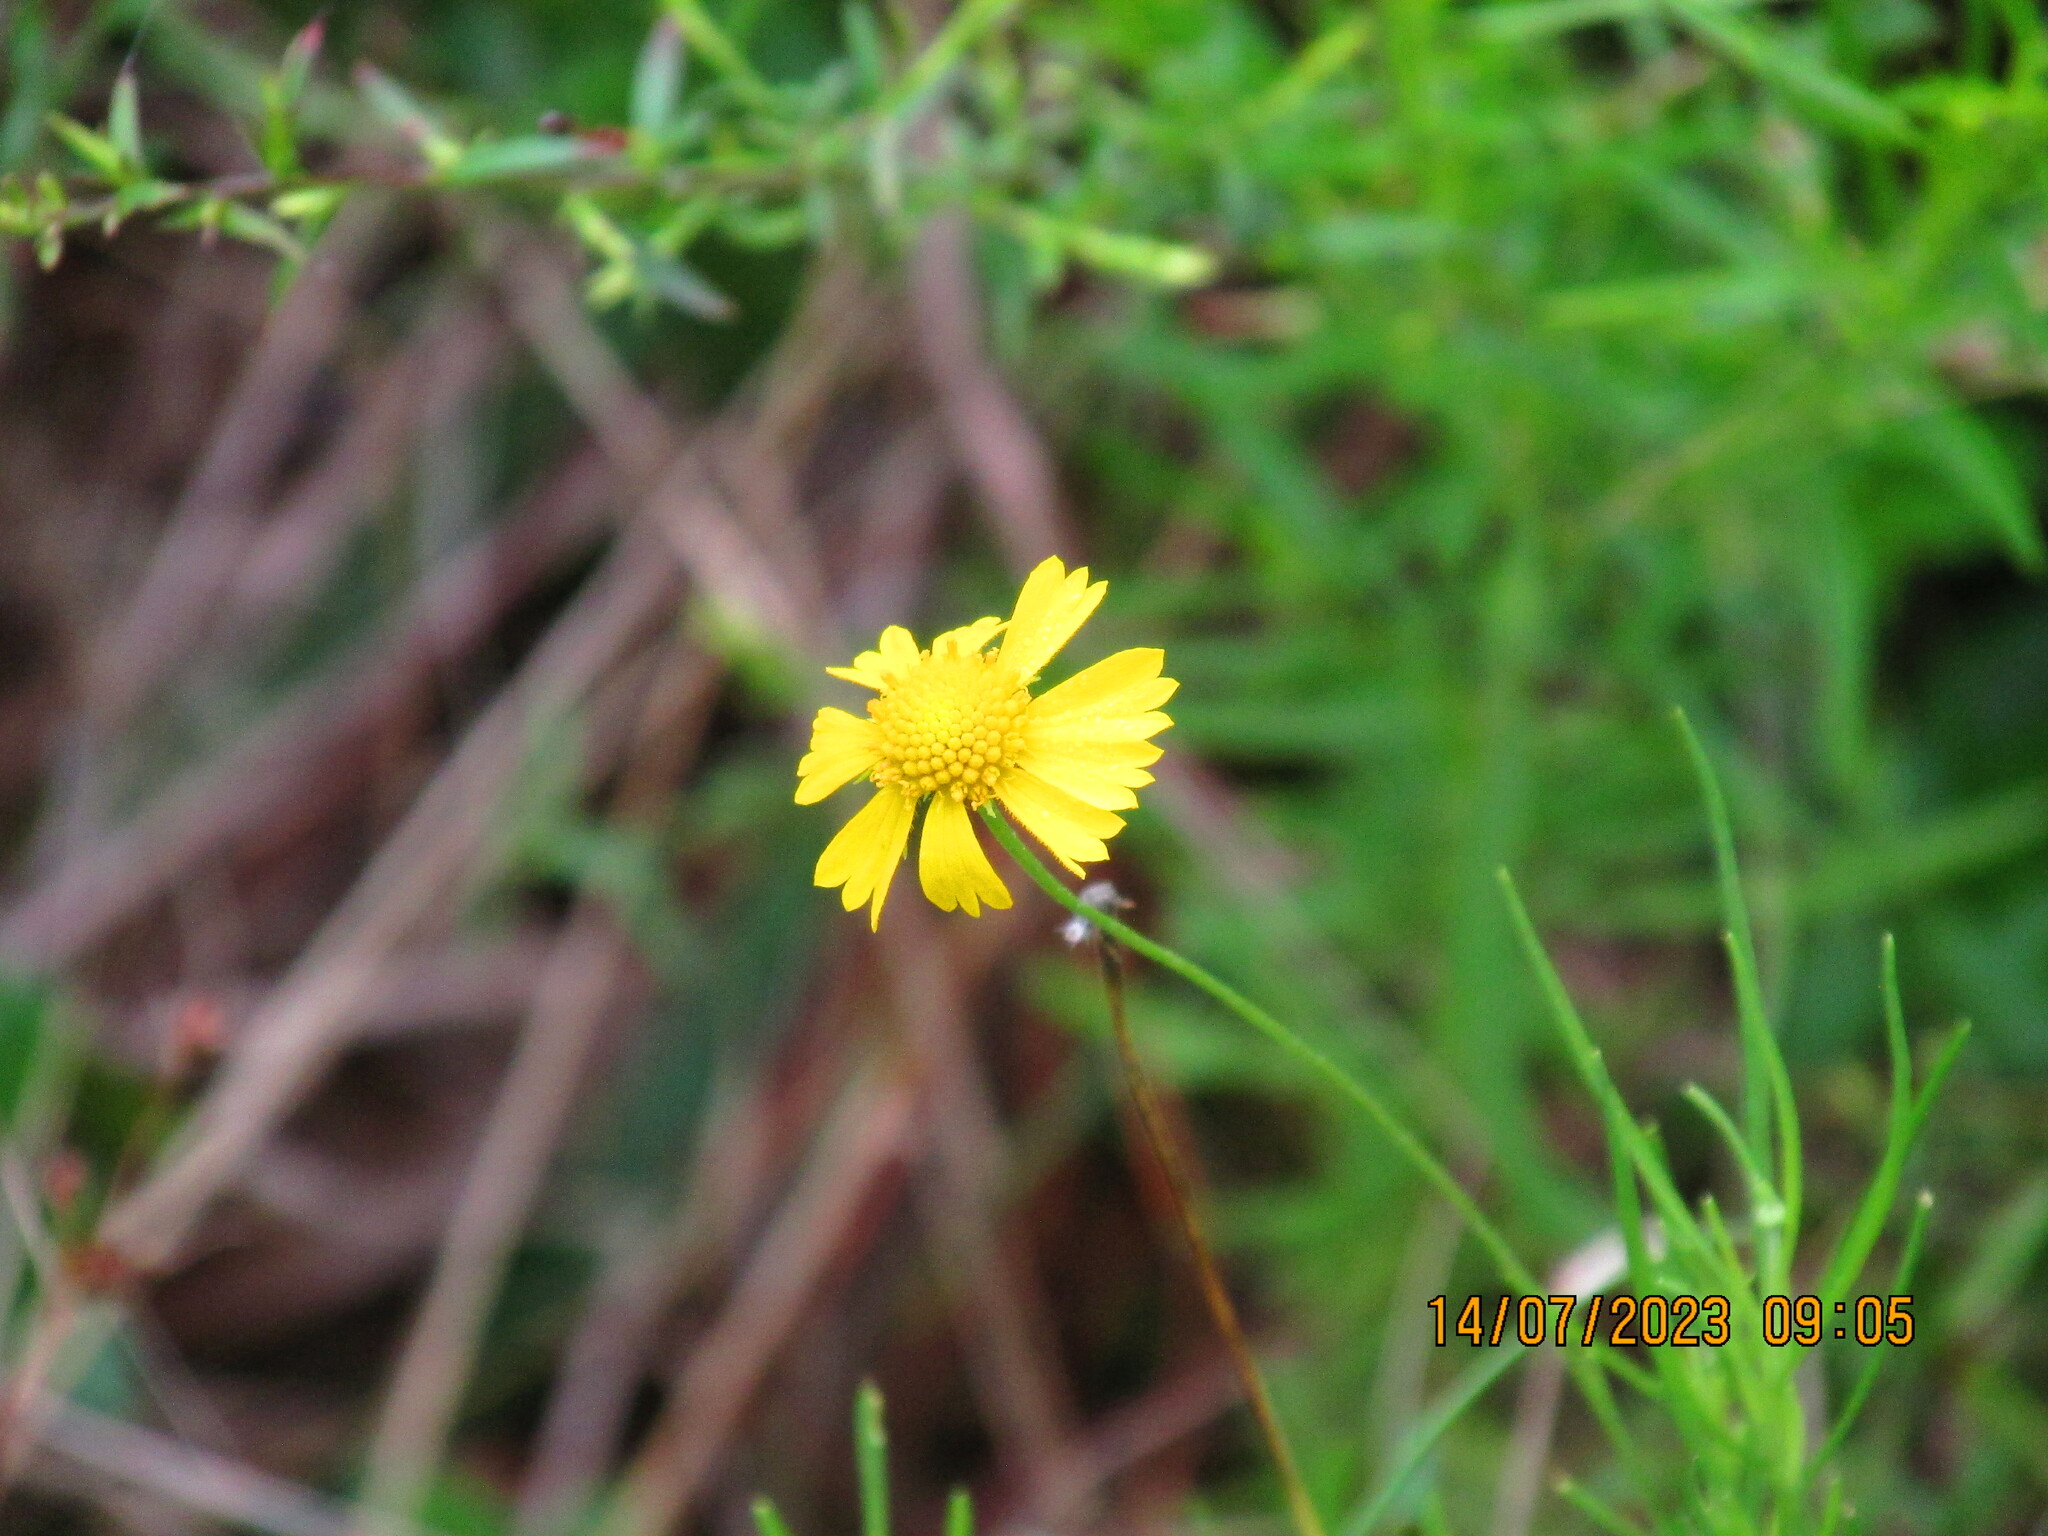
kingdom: Plantae
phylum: Tracheophyta
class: Magnoliopsida
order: Asterales
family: Asteraceae
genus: Helenium
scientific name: Helenium amarum
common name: Bitter sneezeweed
